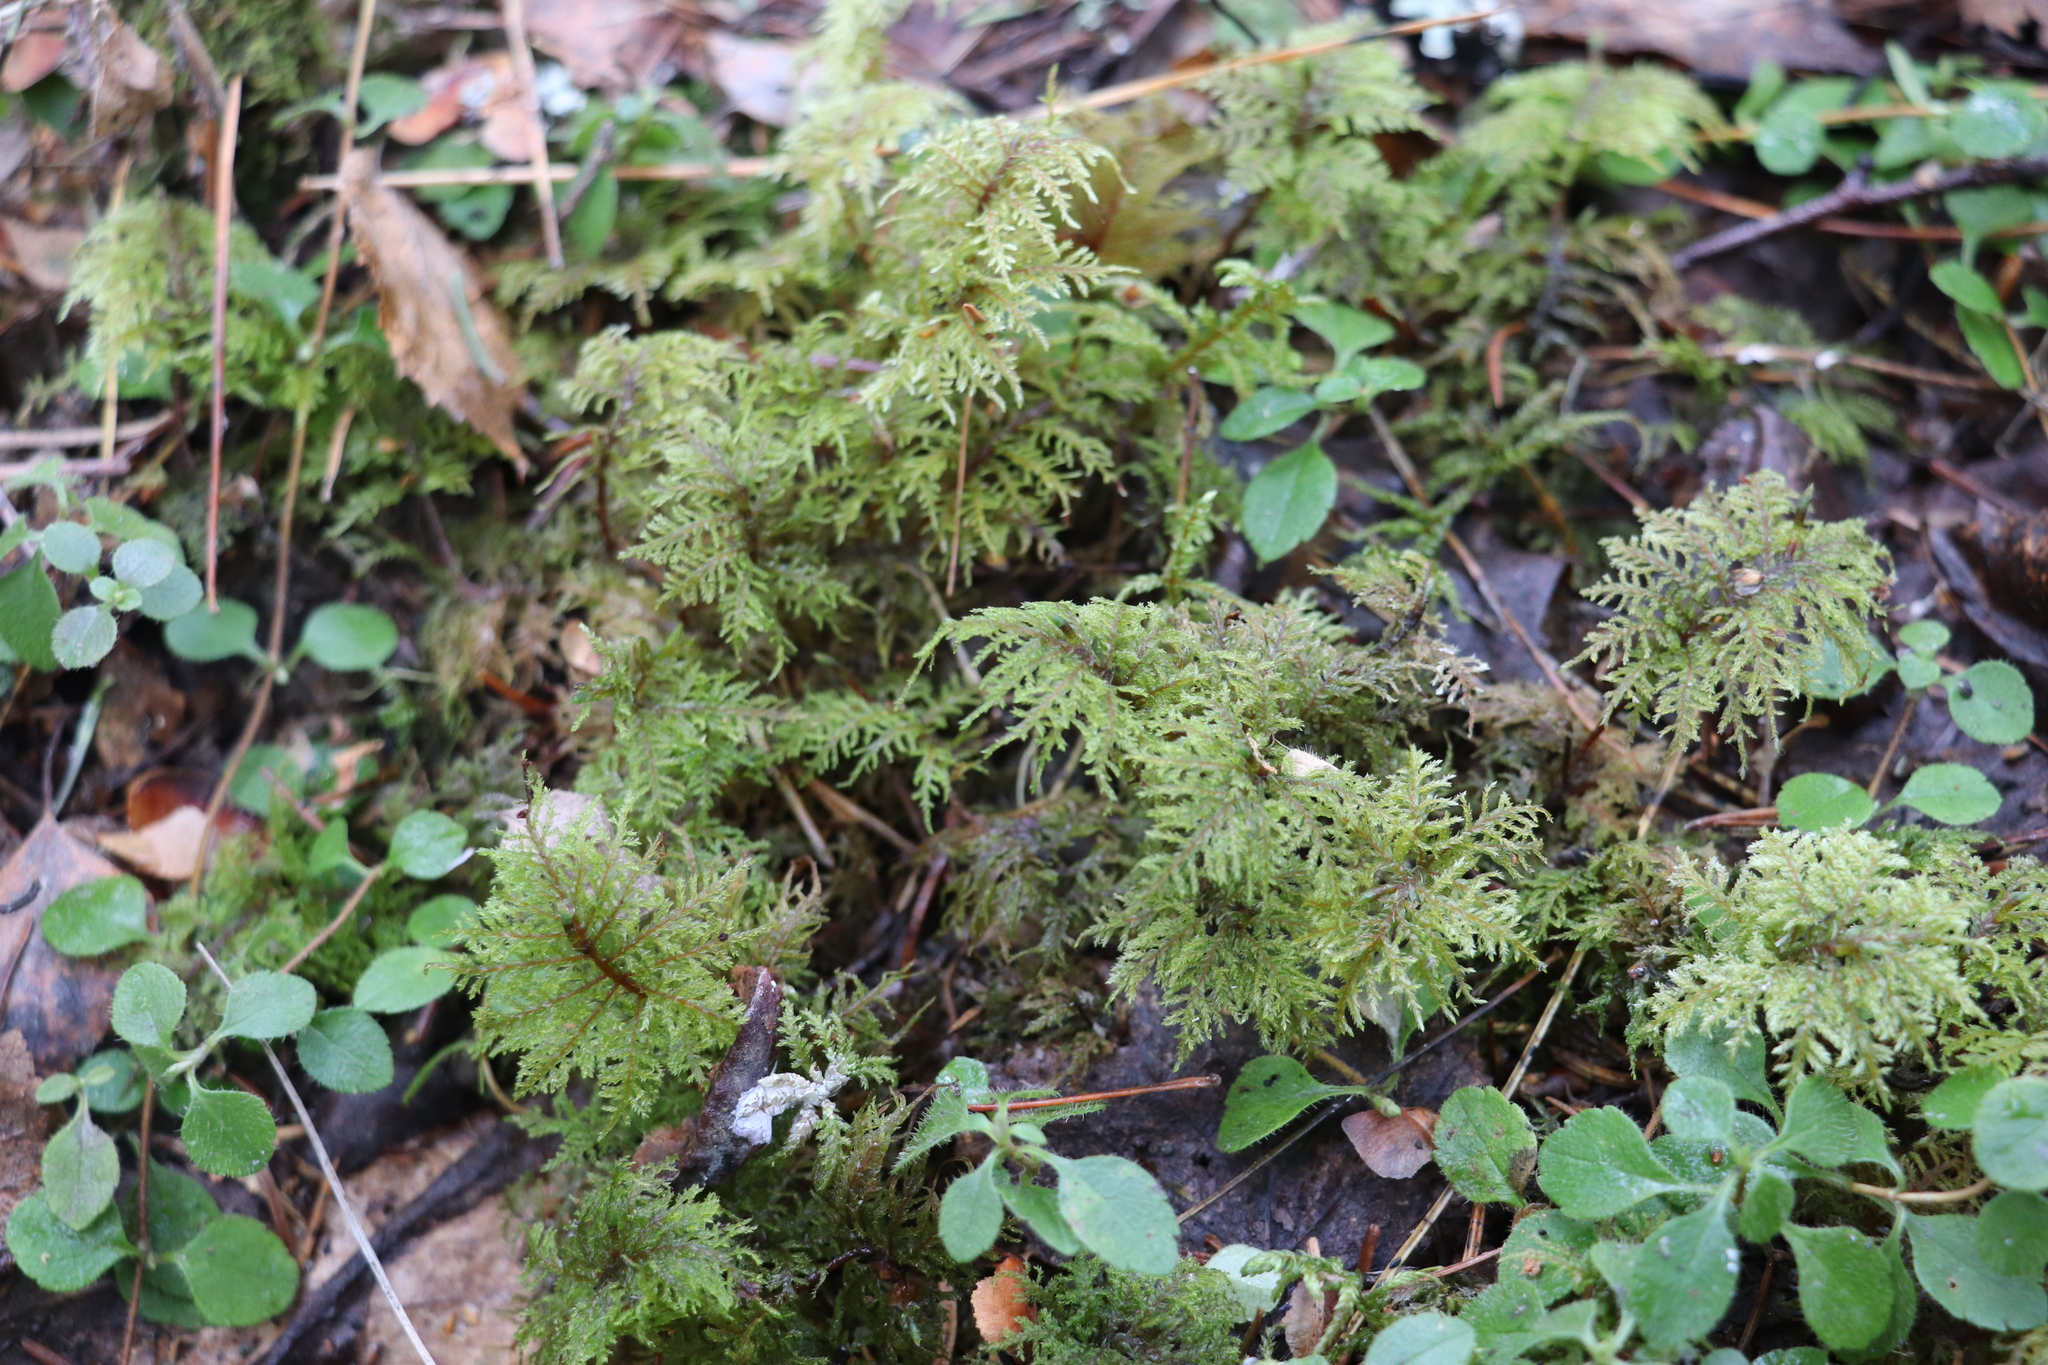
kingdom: Plantae
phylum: Bryophyta
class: Bryopsida
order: Hypnales
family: Hylocomiaceae
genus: Hylocomium
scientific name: Hylocomium splendens
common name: Stairstep moss
